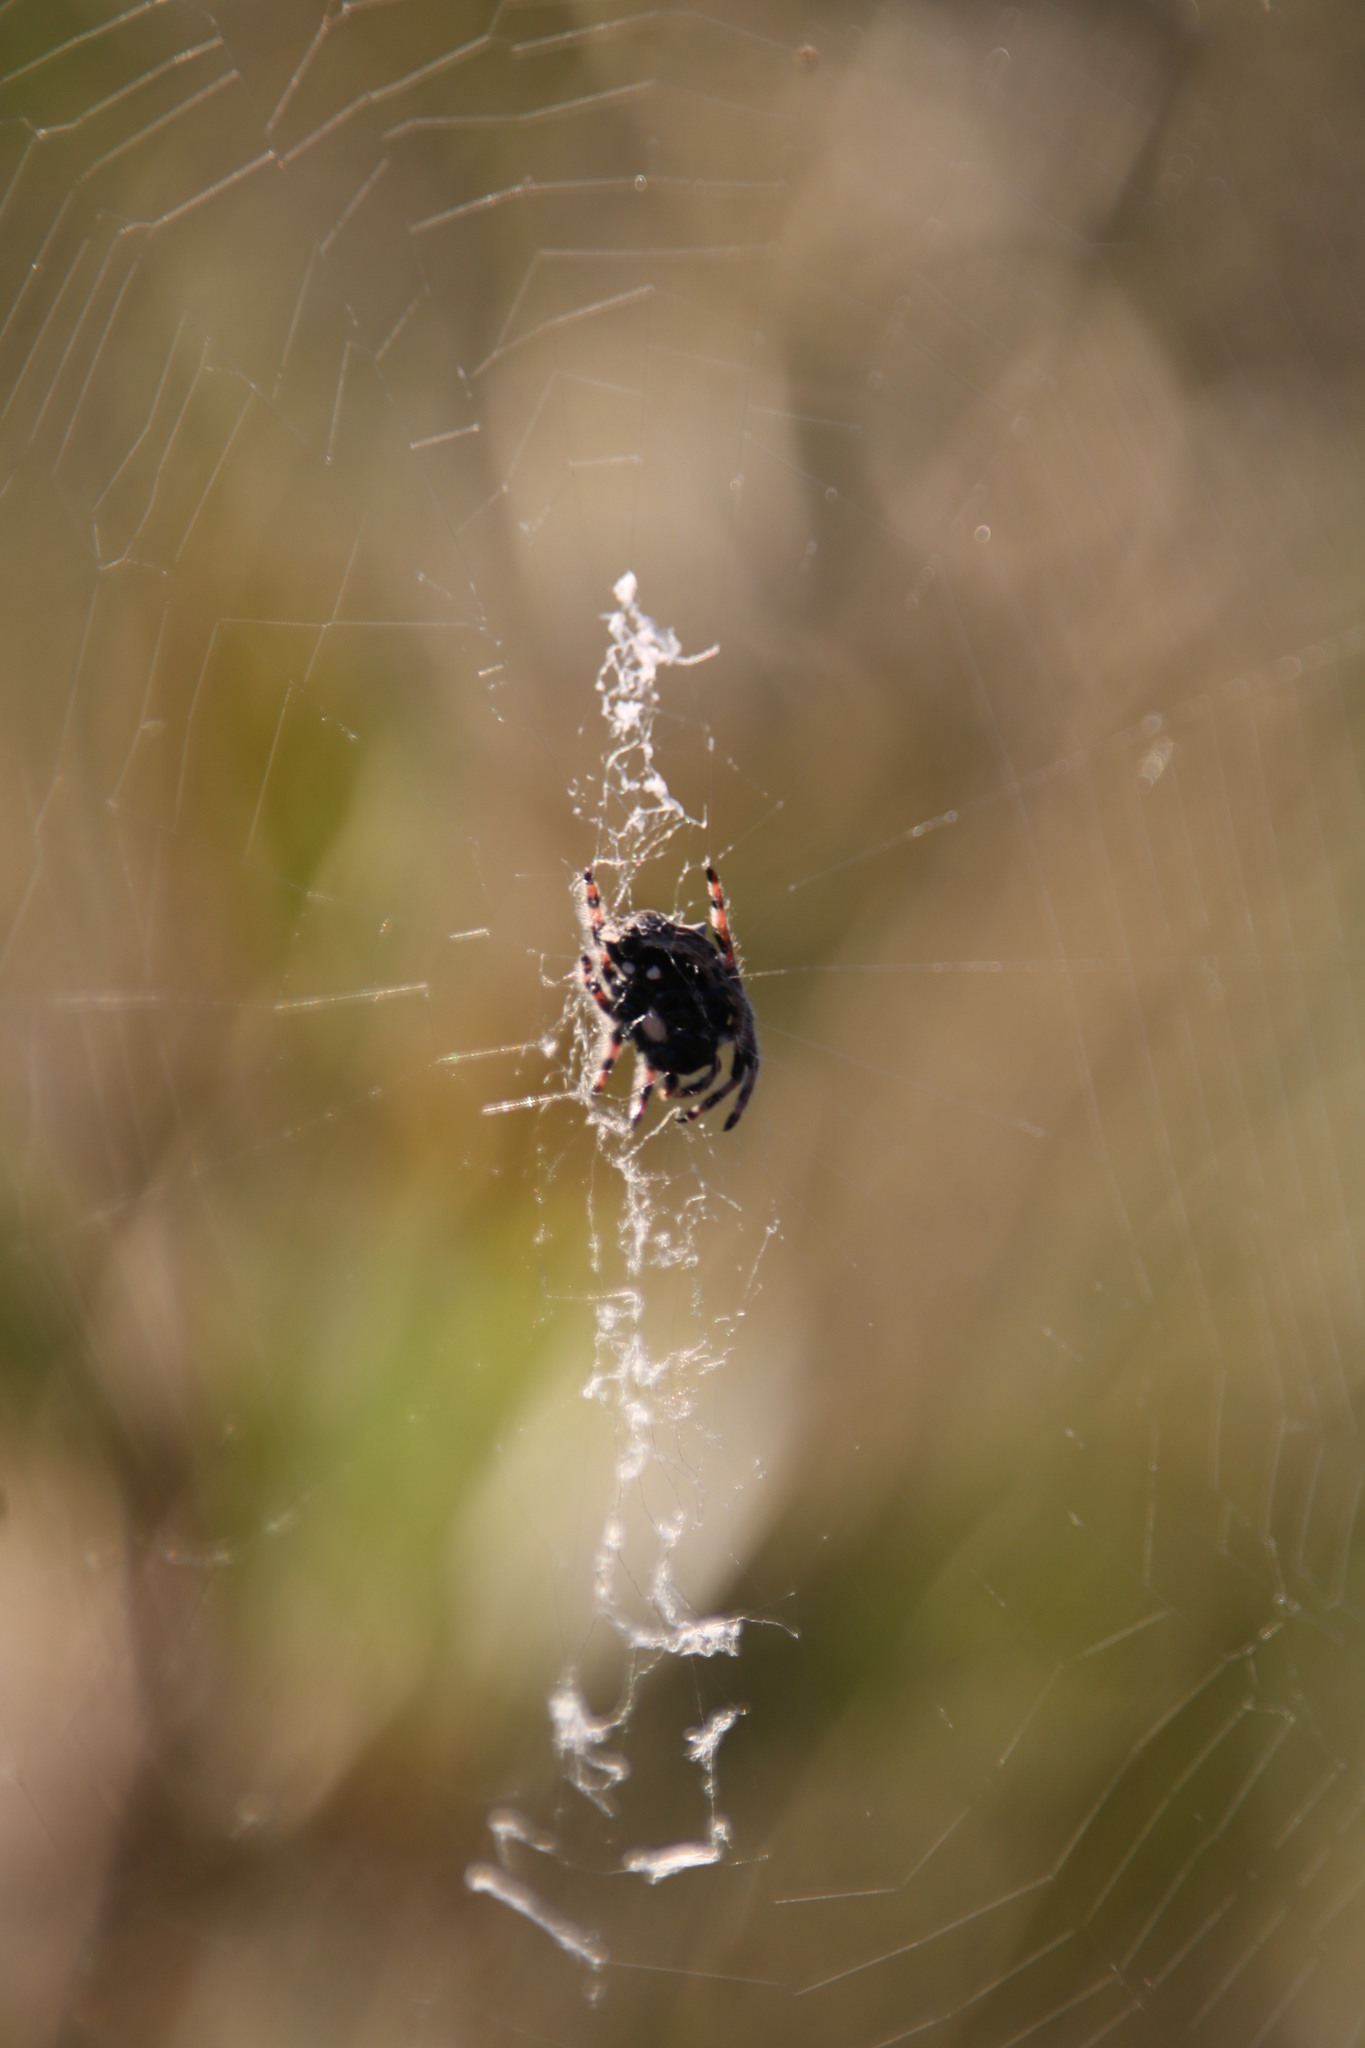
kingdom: Animalia
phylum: Arthropoda
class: Arachnida
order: Araneae
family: Araneidae
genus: Caerostris
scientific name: Caerostris sexcuspidata
